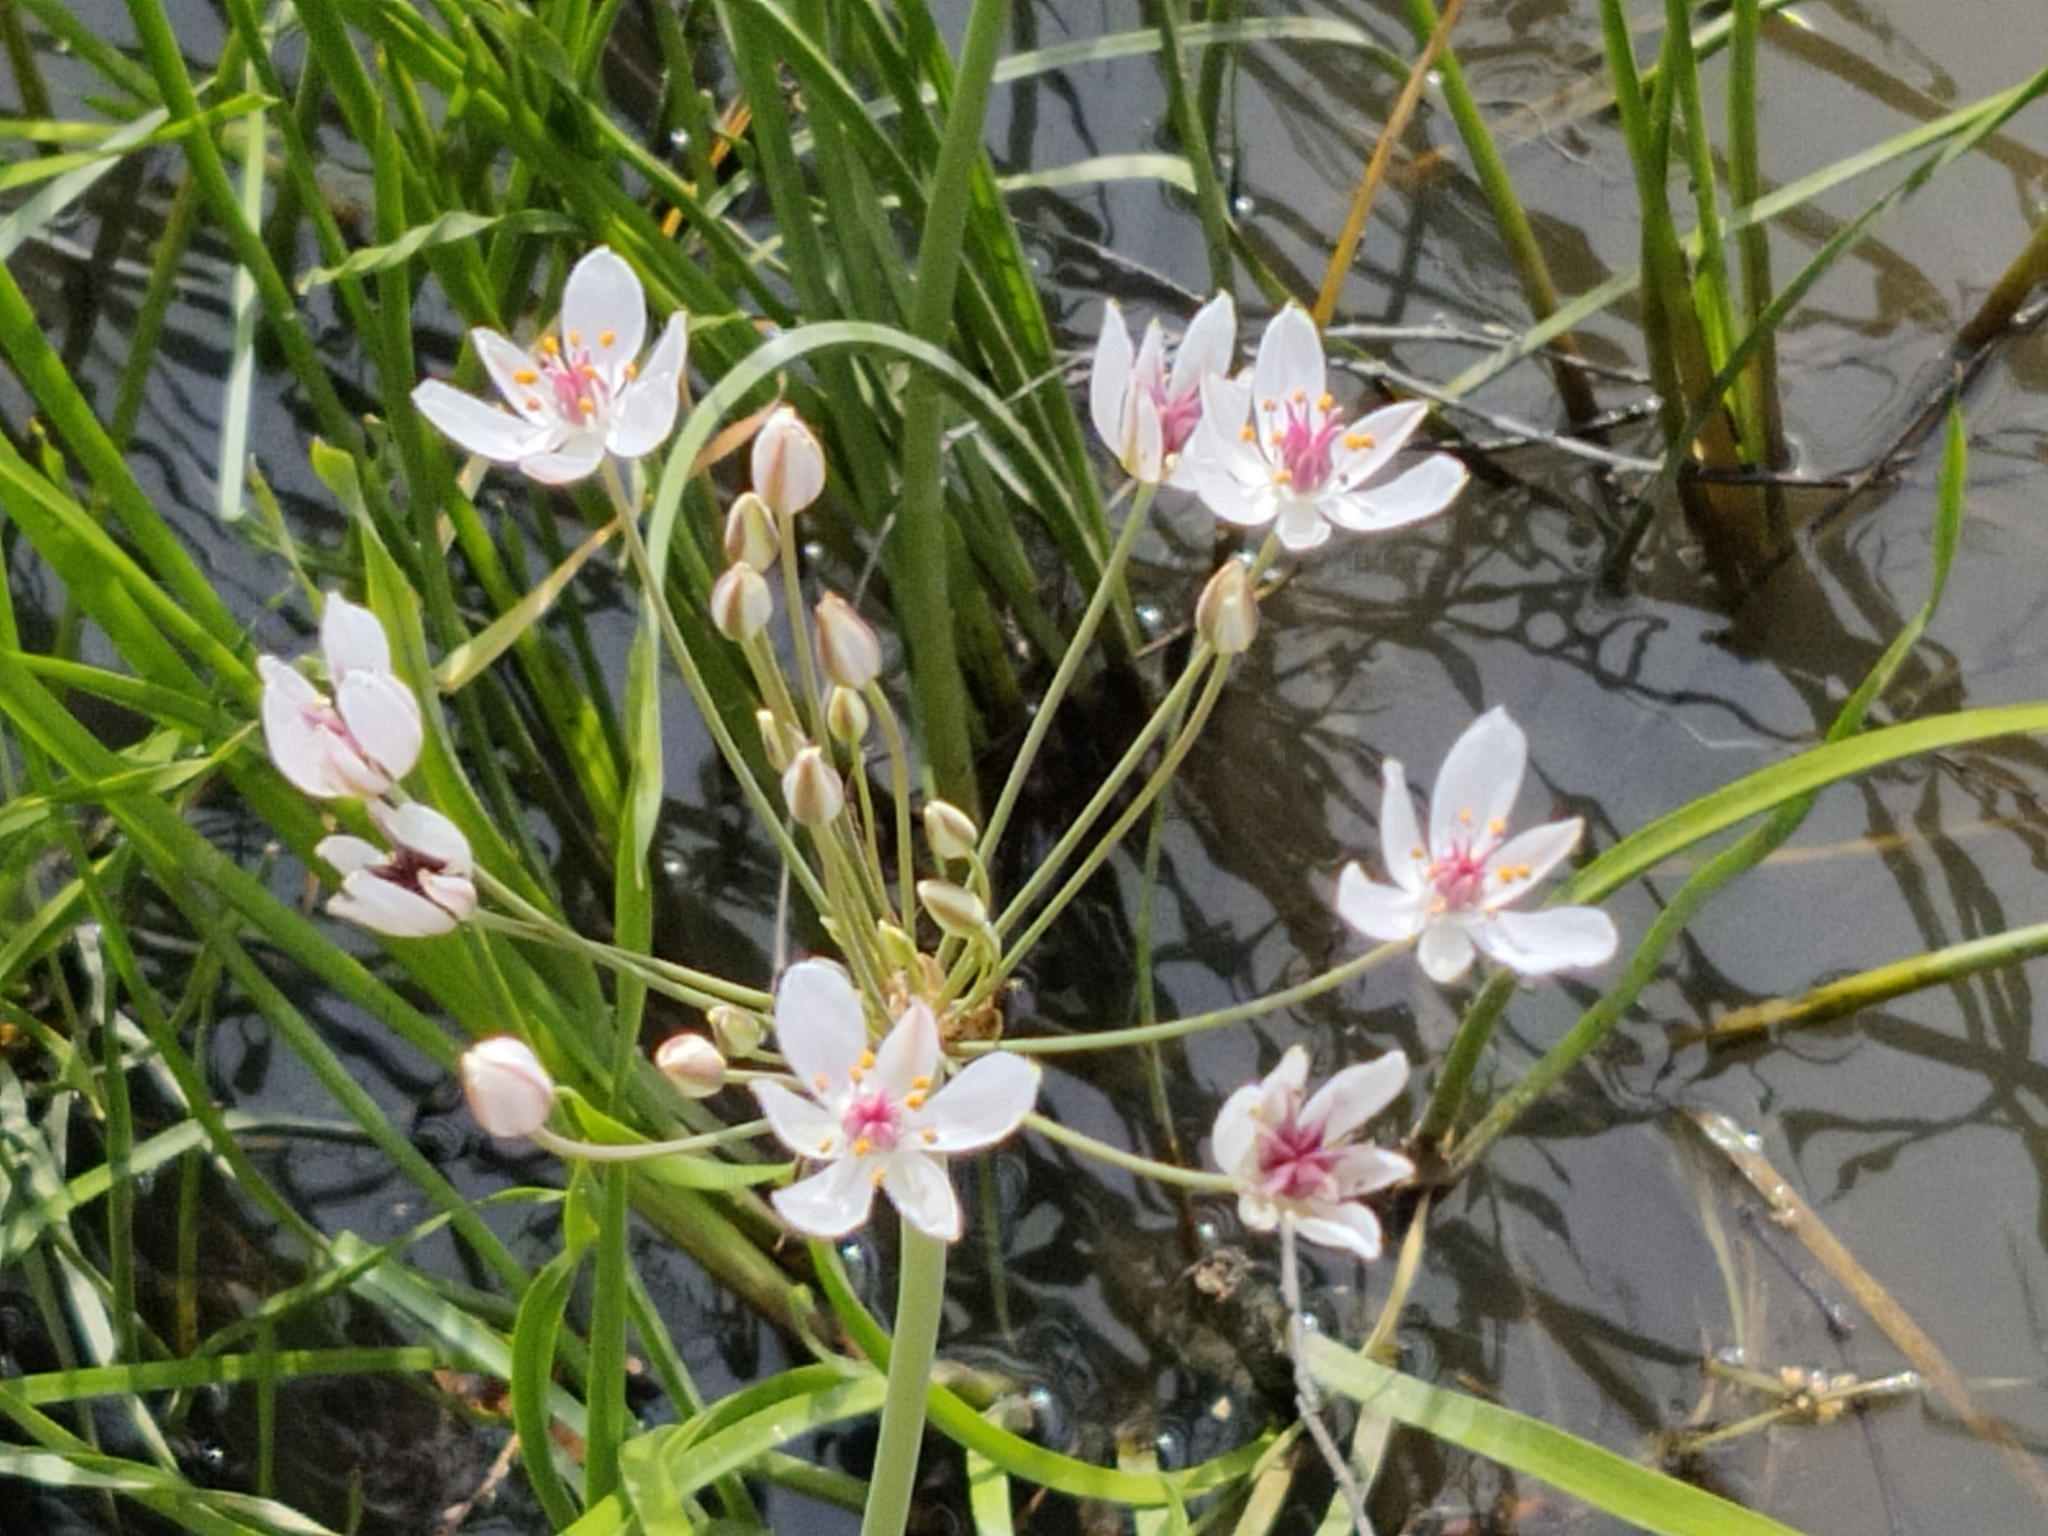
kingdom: Plantae
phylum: Tracheophyta
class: Liliopsida
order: Alismatales
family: Butomaceae
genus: Butomus
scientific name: Butomus umbellatus
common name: Flowering-rush
